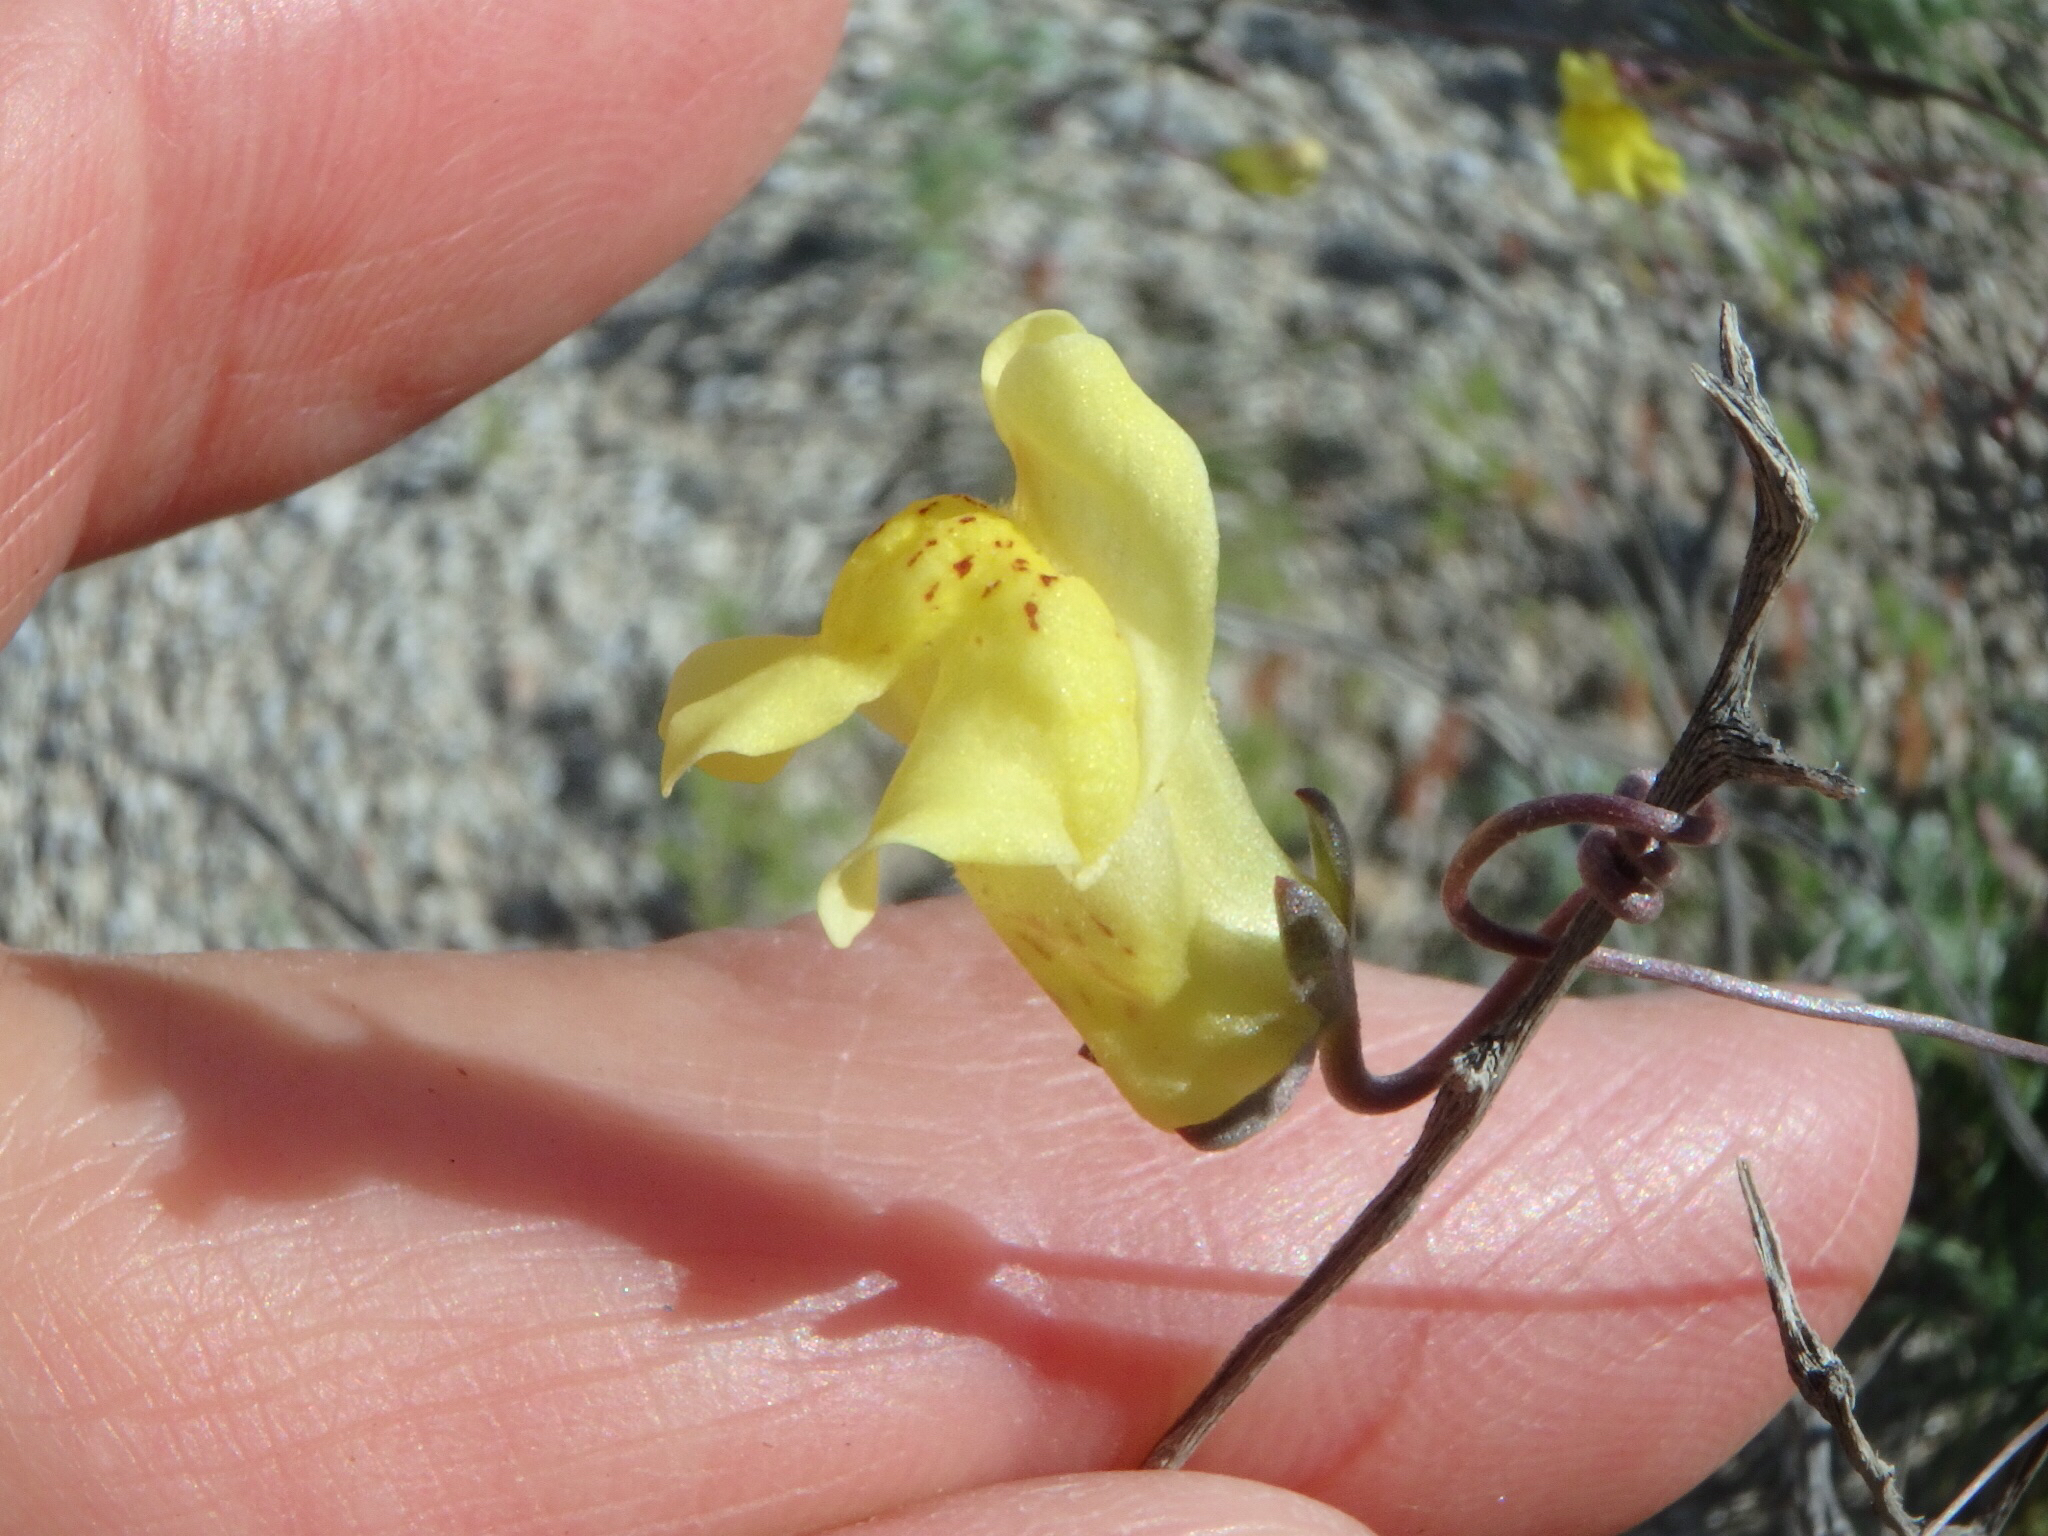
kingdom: Plantae
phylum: Tracheophyta
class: Magnoliopsida
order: Lamiales
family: Plantaginaceae
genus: Neogaerrhinum
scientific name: Neogaerrhinum filipes
